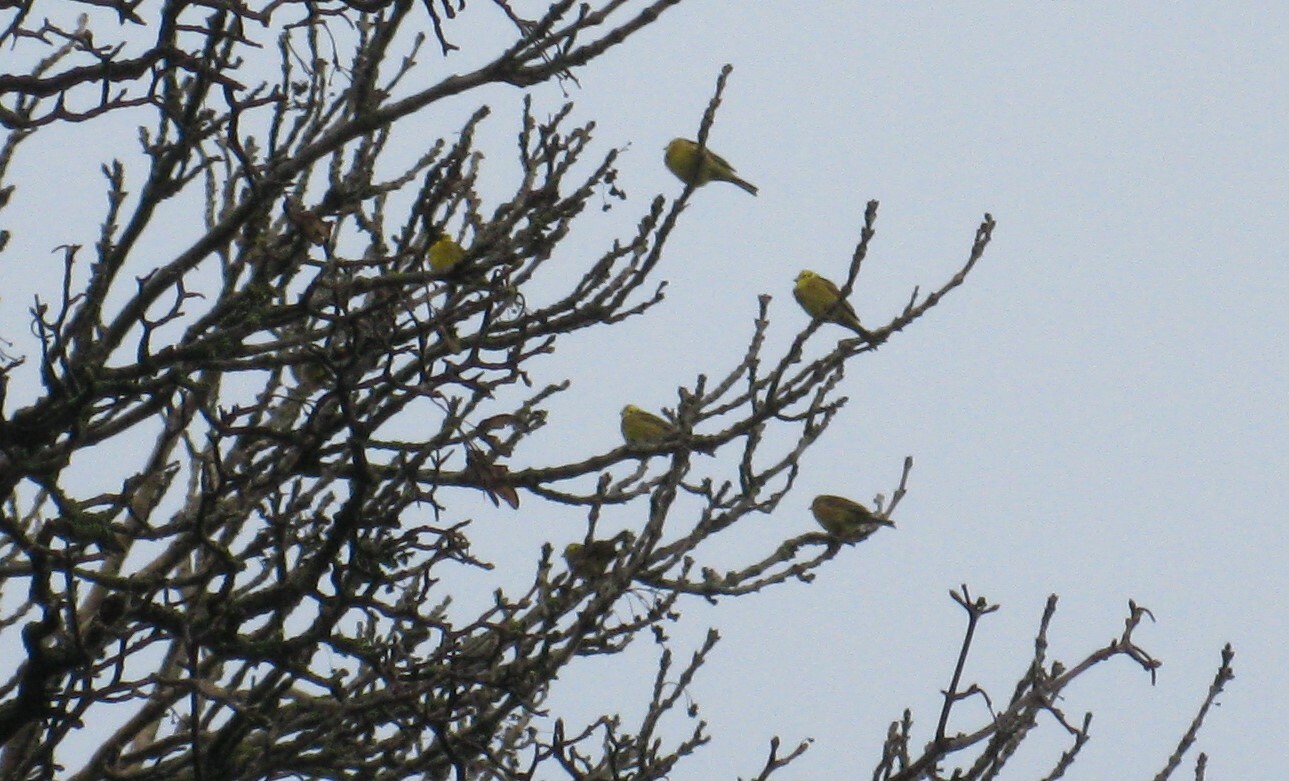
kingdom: Animalia
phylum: Chordata
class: Aves
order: Passeriformes
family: Emberizidae
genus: Emberiza
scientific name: Emberiza citrinella
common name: Yellowhammer
